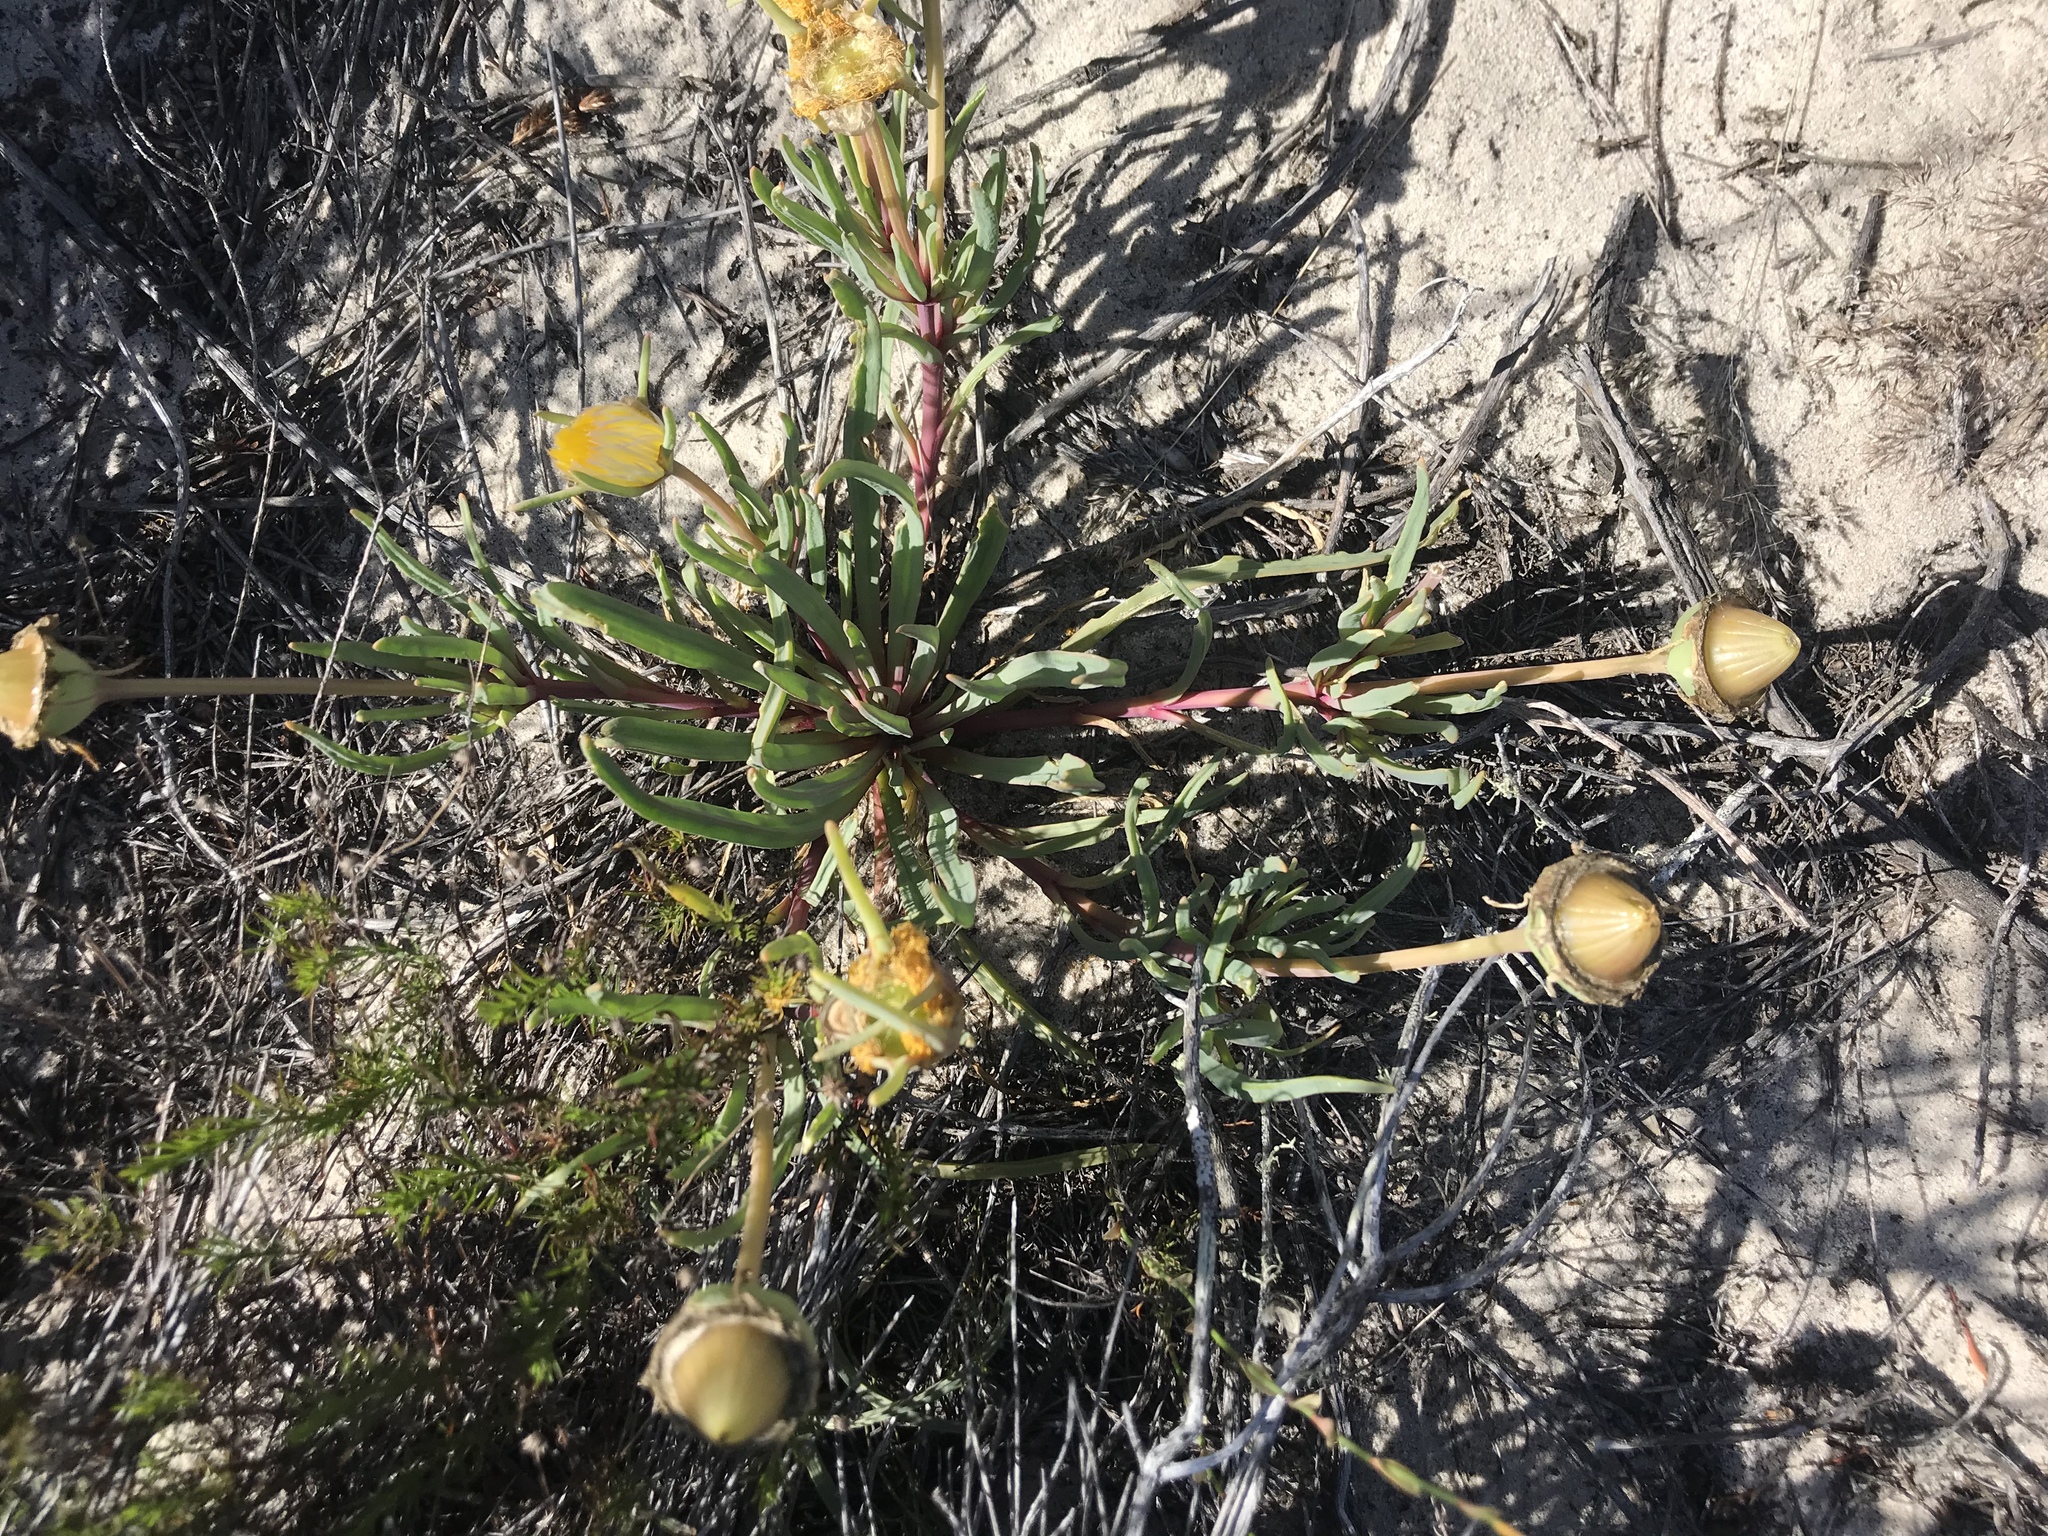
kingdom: Plantae
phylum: Tracheophyta
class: Magnoliopsida
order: Caryophyllales
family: Aizoaceae
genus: Conicosia
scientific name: Conicosia pugioniformis
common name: Narrow-leaved iceplant
